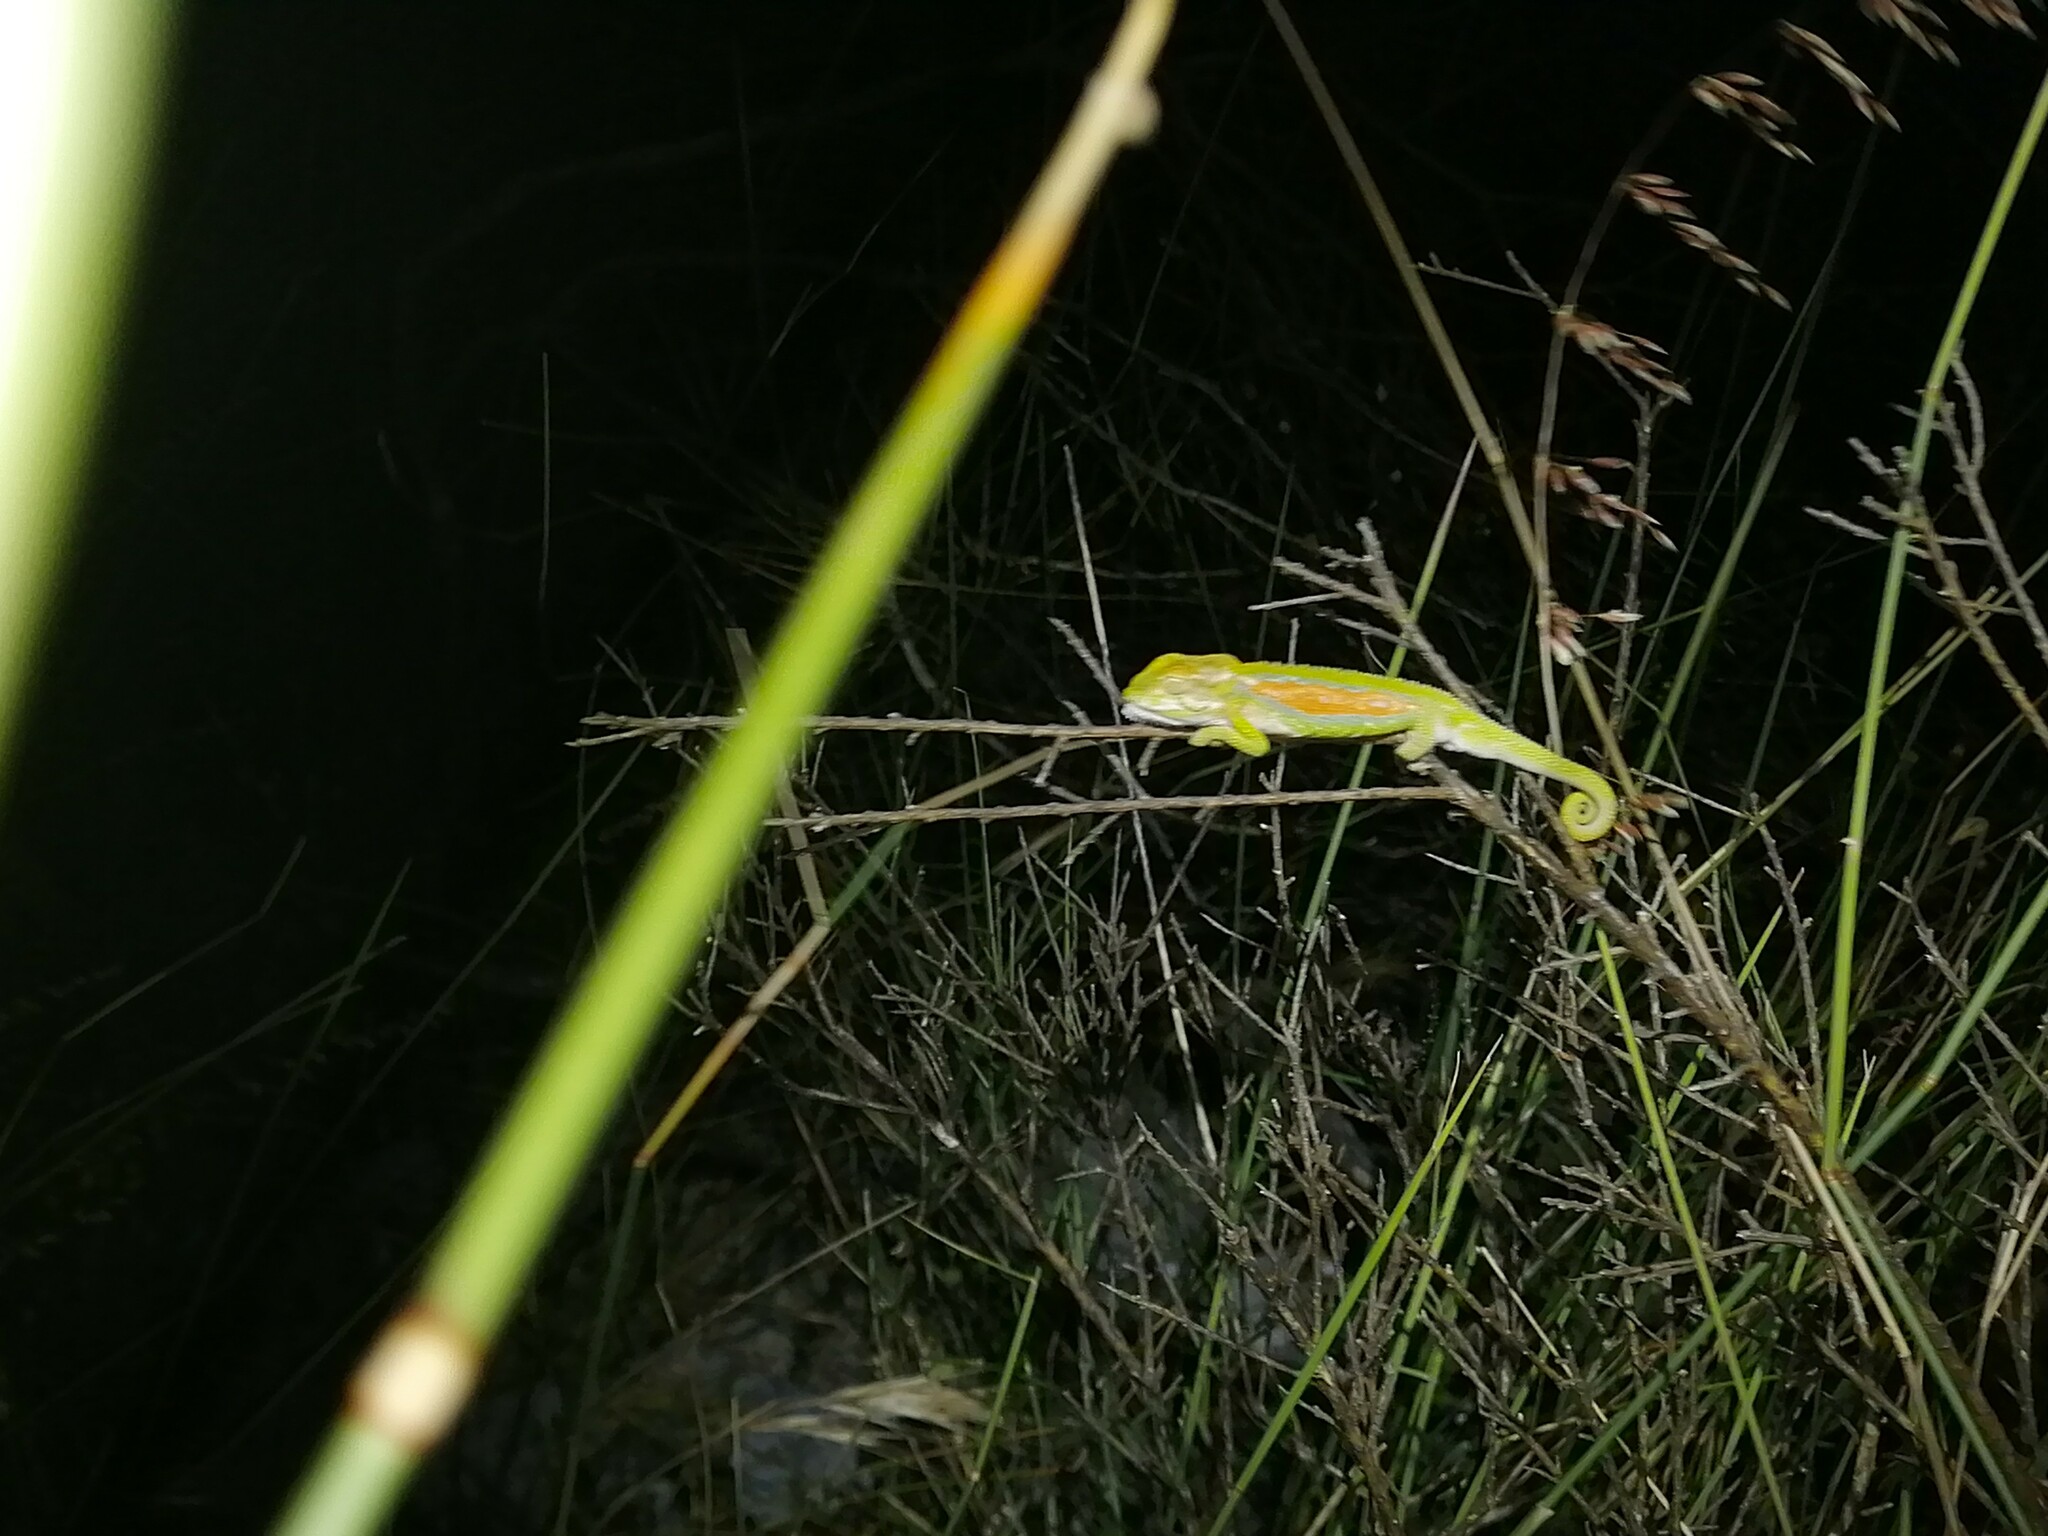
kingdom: Animalia
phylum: Chordata
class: Squamata
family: Chamaeleonidae
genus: Bradypodion
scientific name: Bradypodion pumilum
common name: Cape dwarf chameleon
